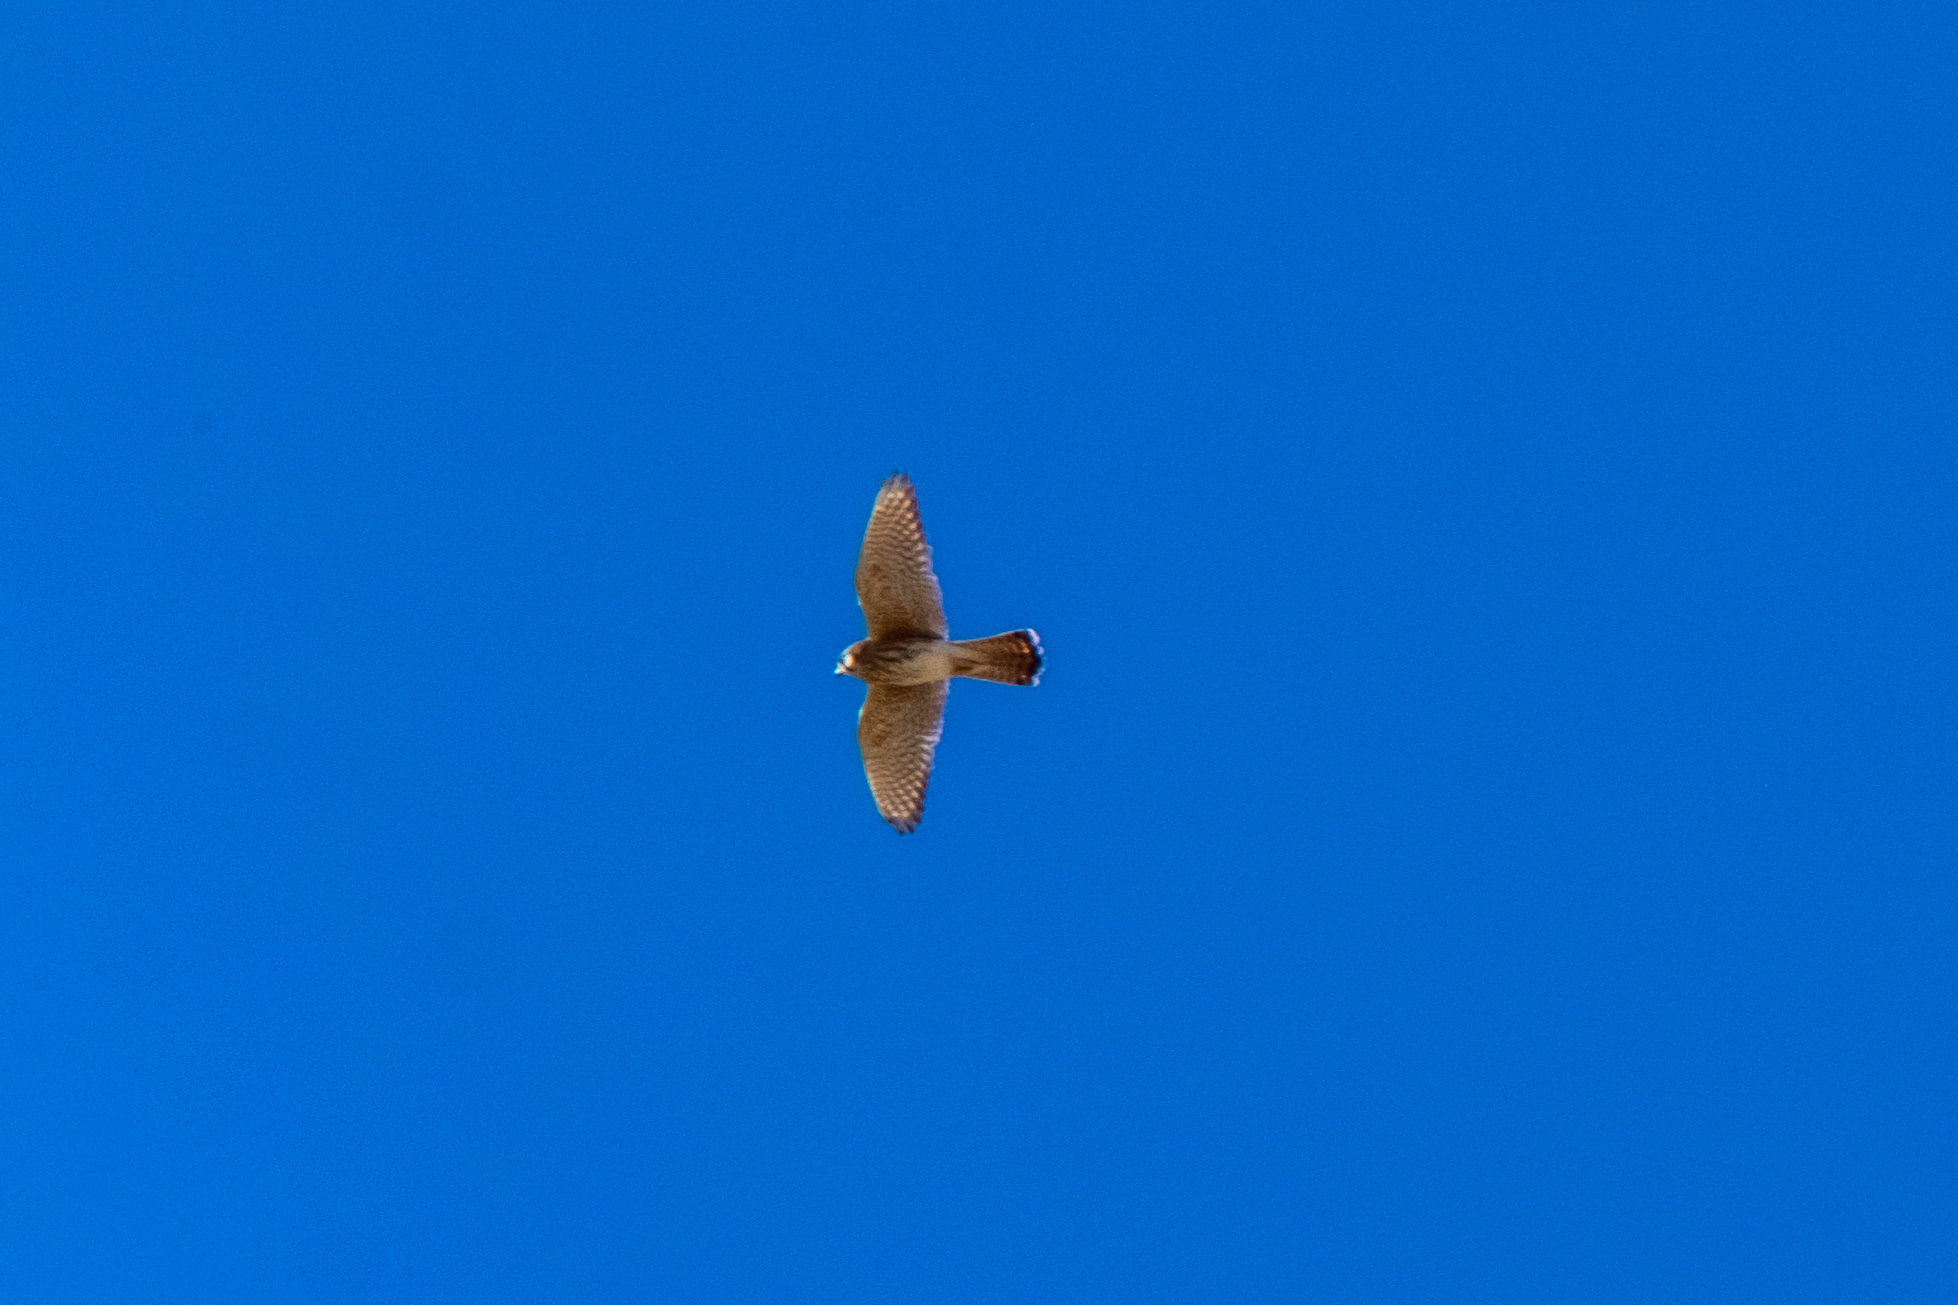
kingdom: Animalia
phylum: Chordata
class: Aves
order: Falconiformes
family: Falconidae
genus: Falco
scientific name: Falco sparverius
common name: American kestrel
